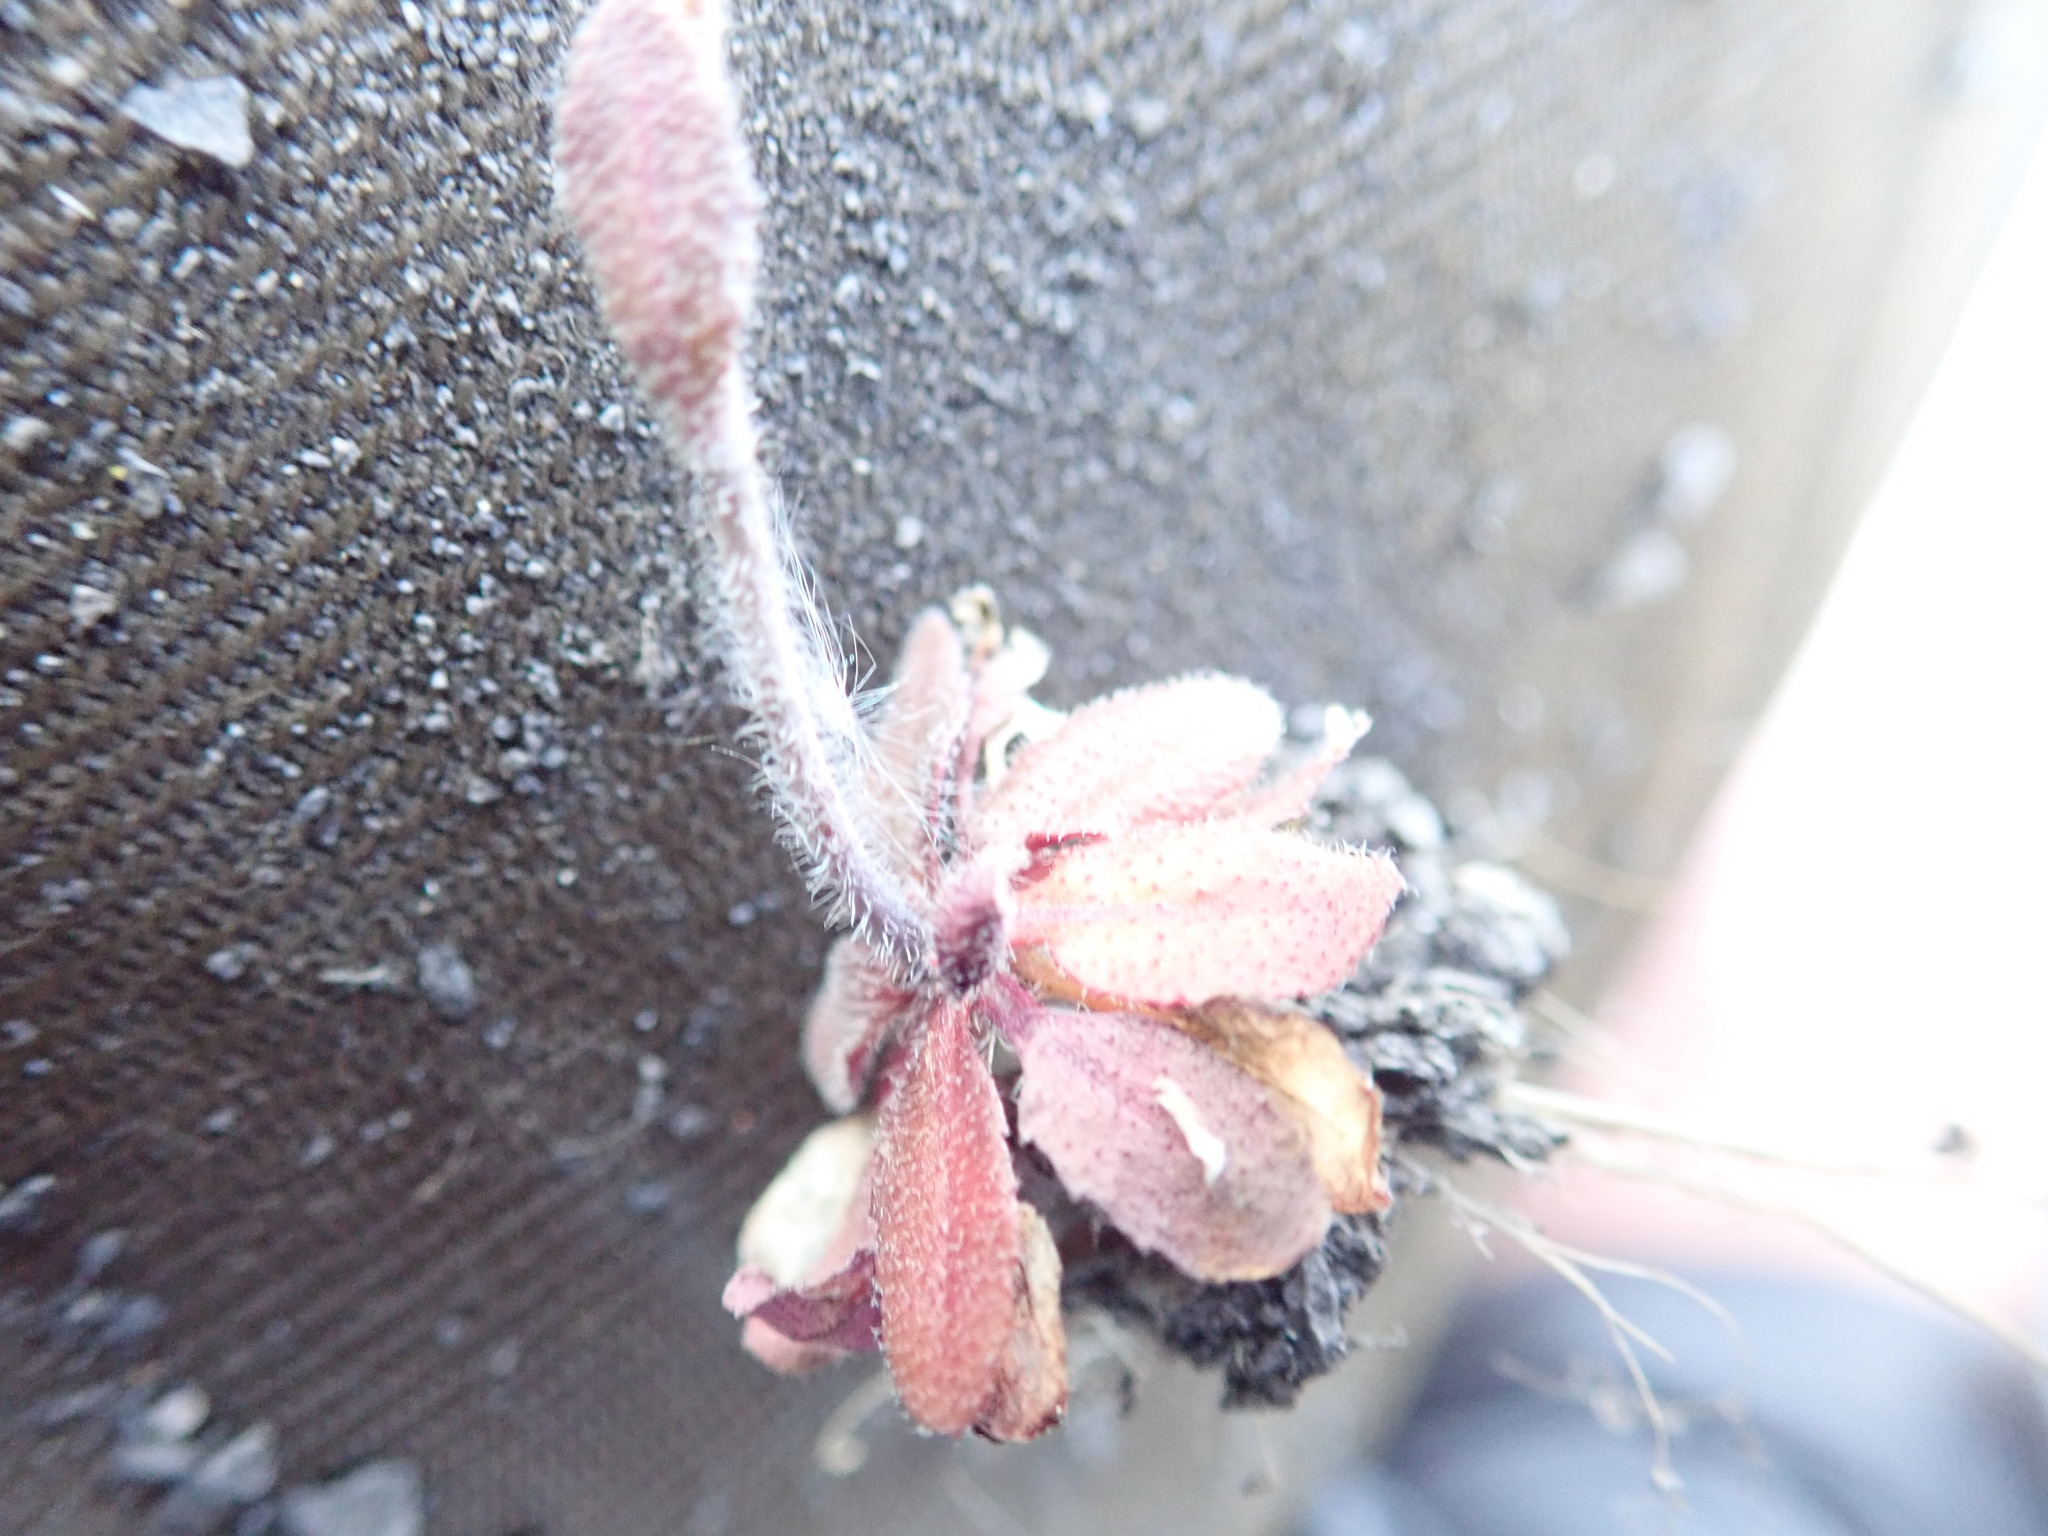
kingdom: Plantae
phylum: Tracheophyta
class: Magnoliopsida
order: Brassicales
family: Brassicaceae
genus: Arabidopsis
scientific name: Arabidopsis thaliana
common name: Thale cress
